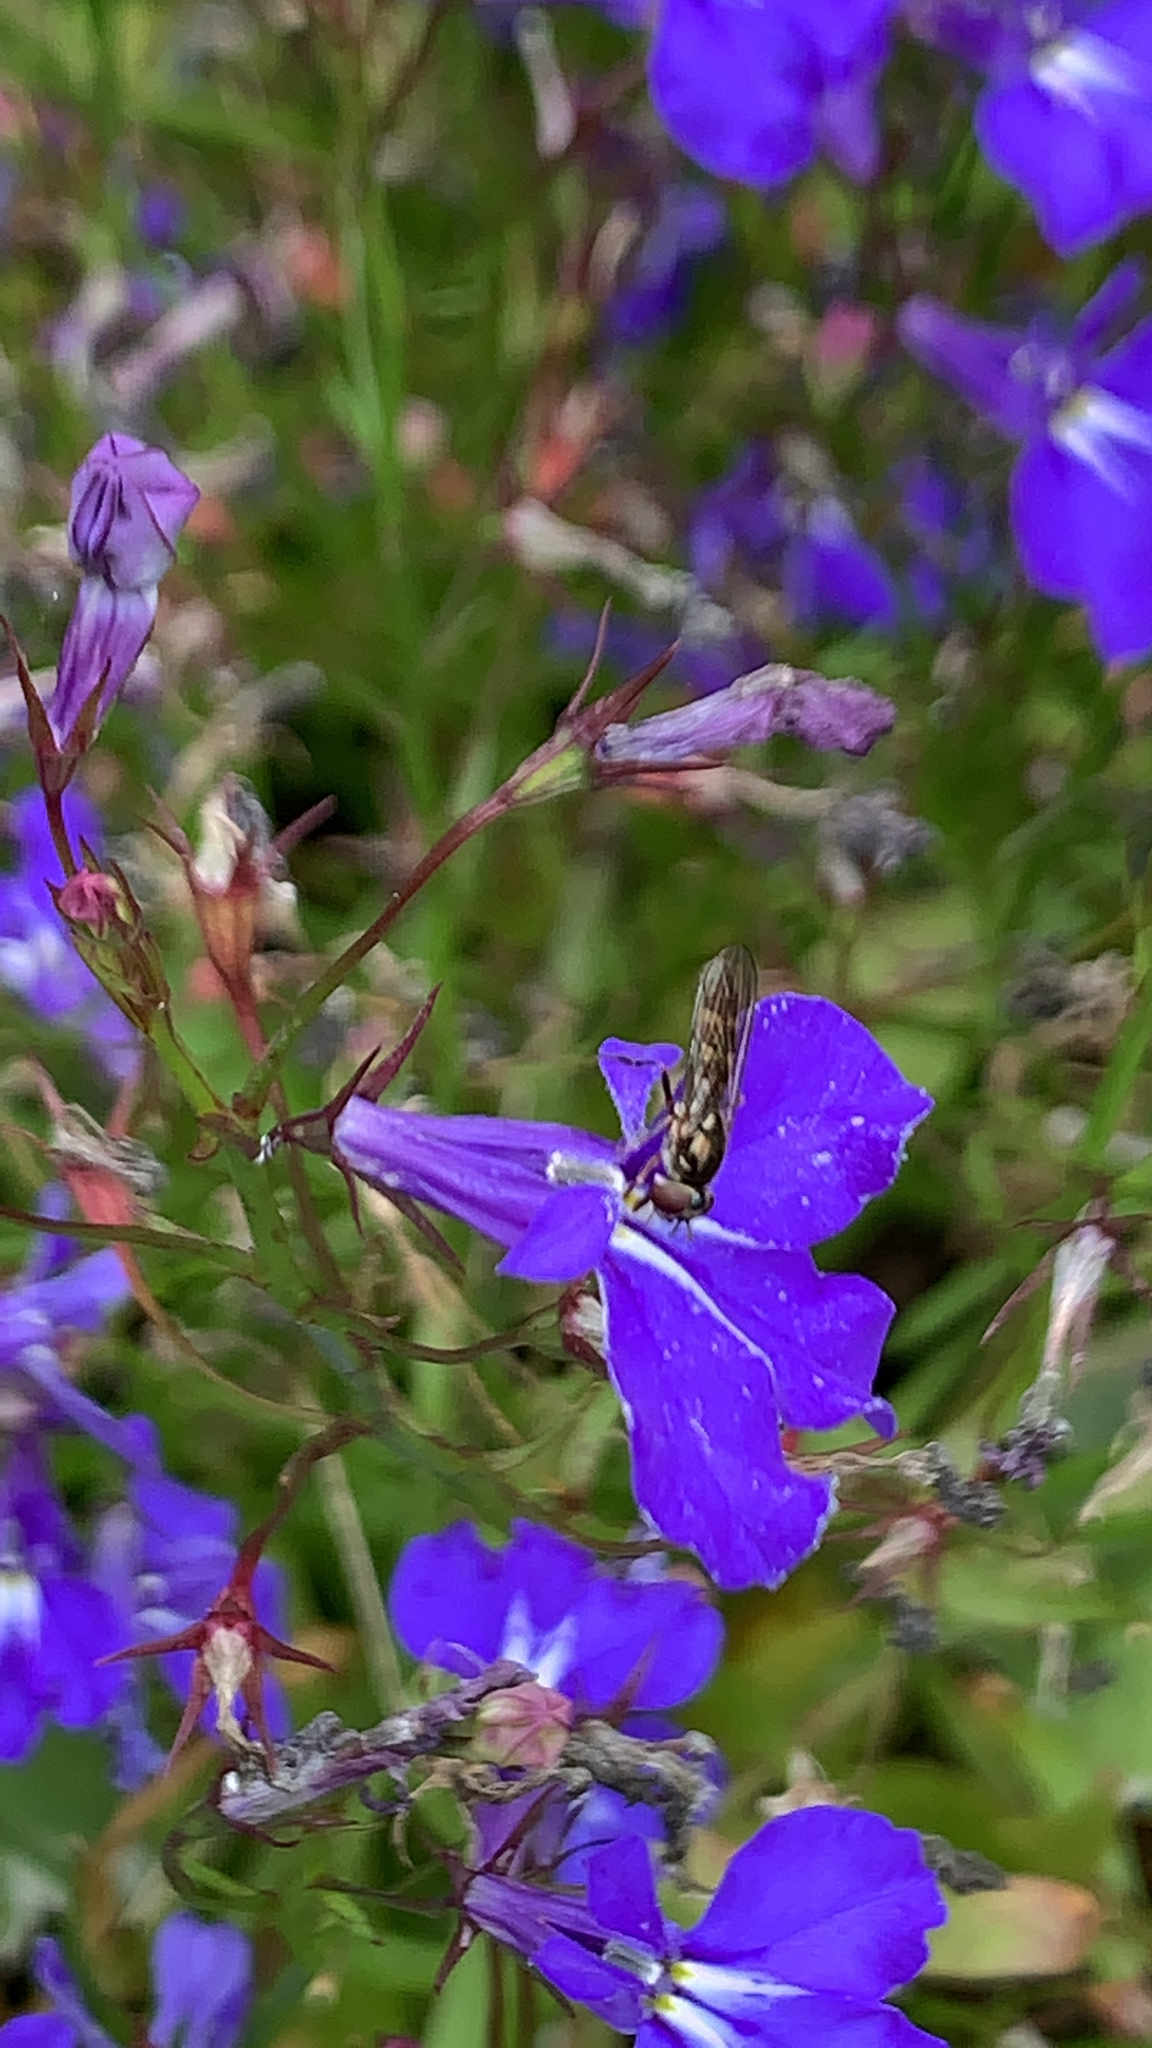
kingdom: Plantae
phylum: Tracheophyta
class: Magnoliopsida
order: Asterales
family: Campanulaceae
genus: Lobelia
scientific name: Lobelia erinus
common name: Edging lobelia
